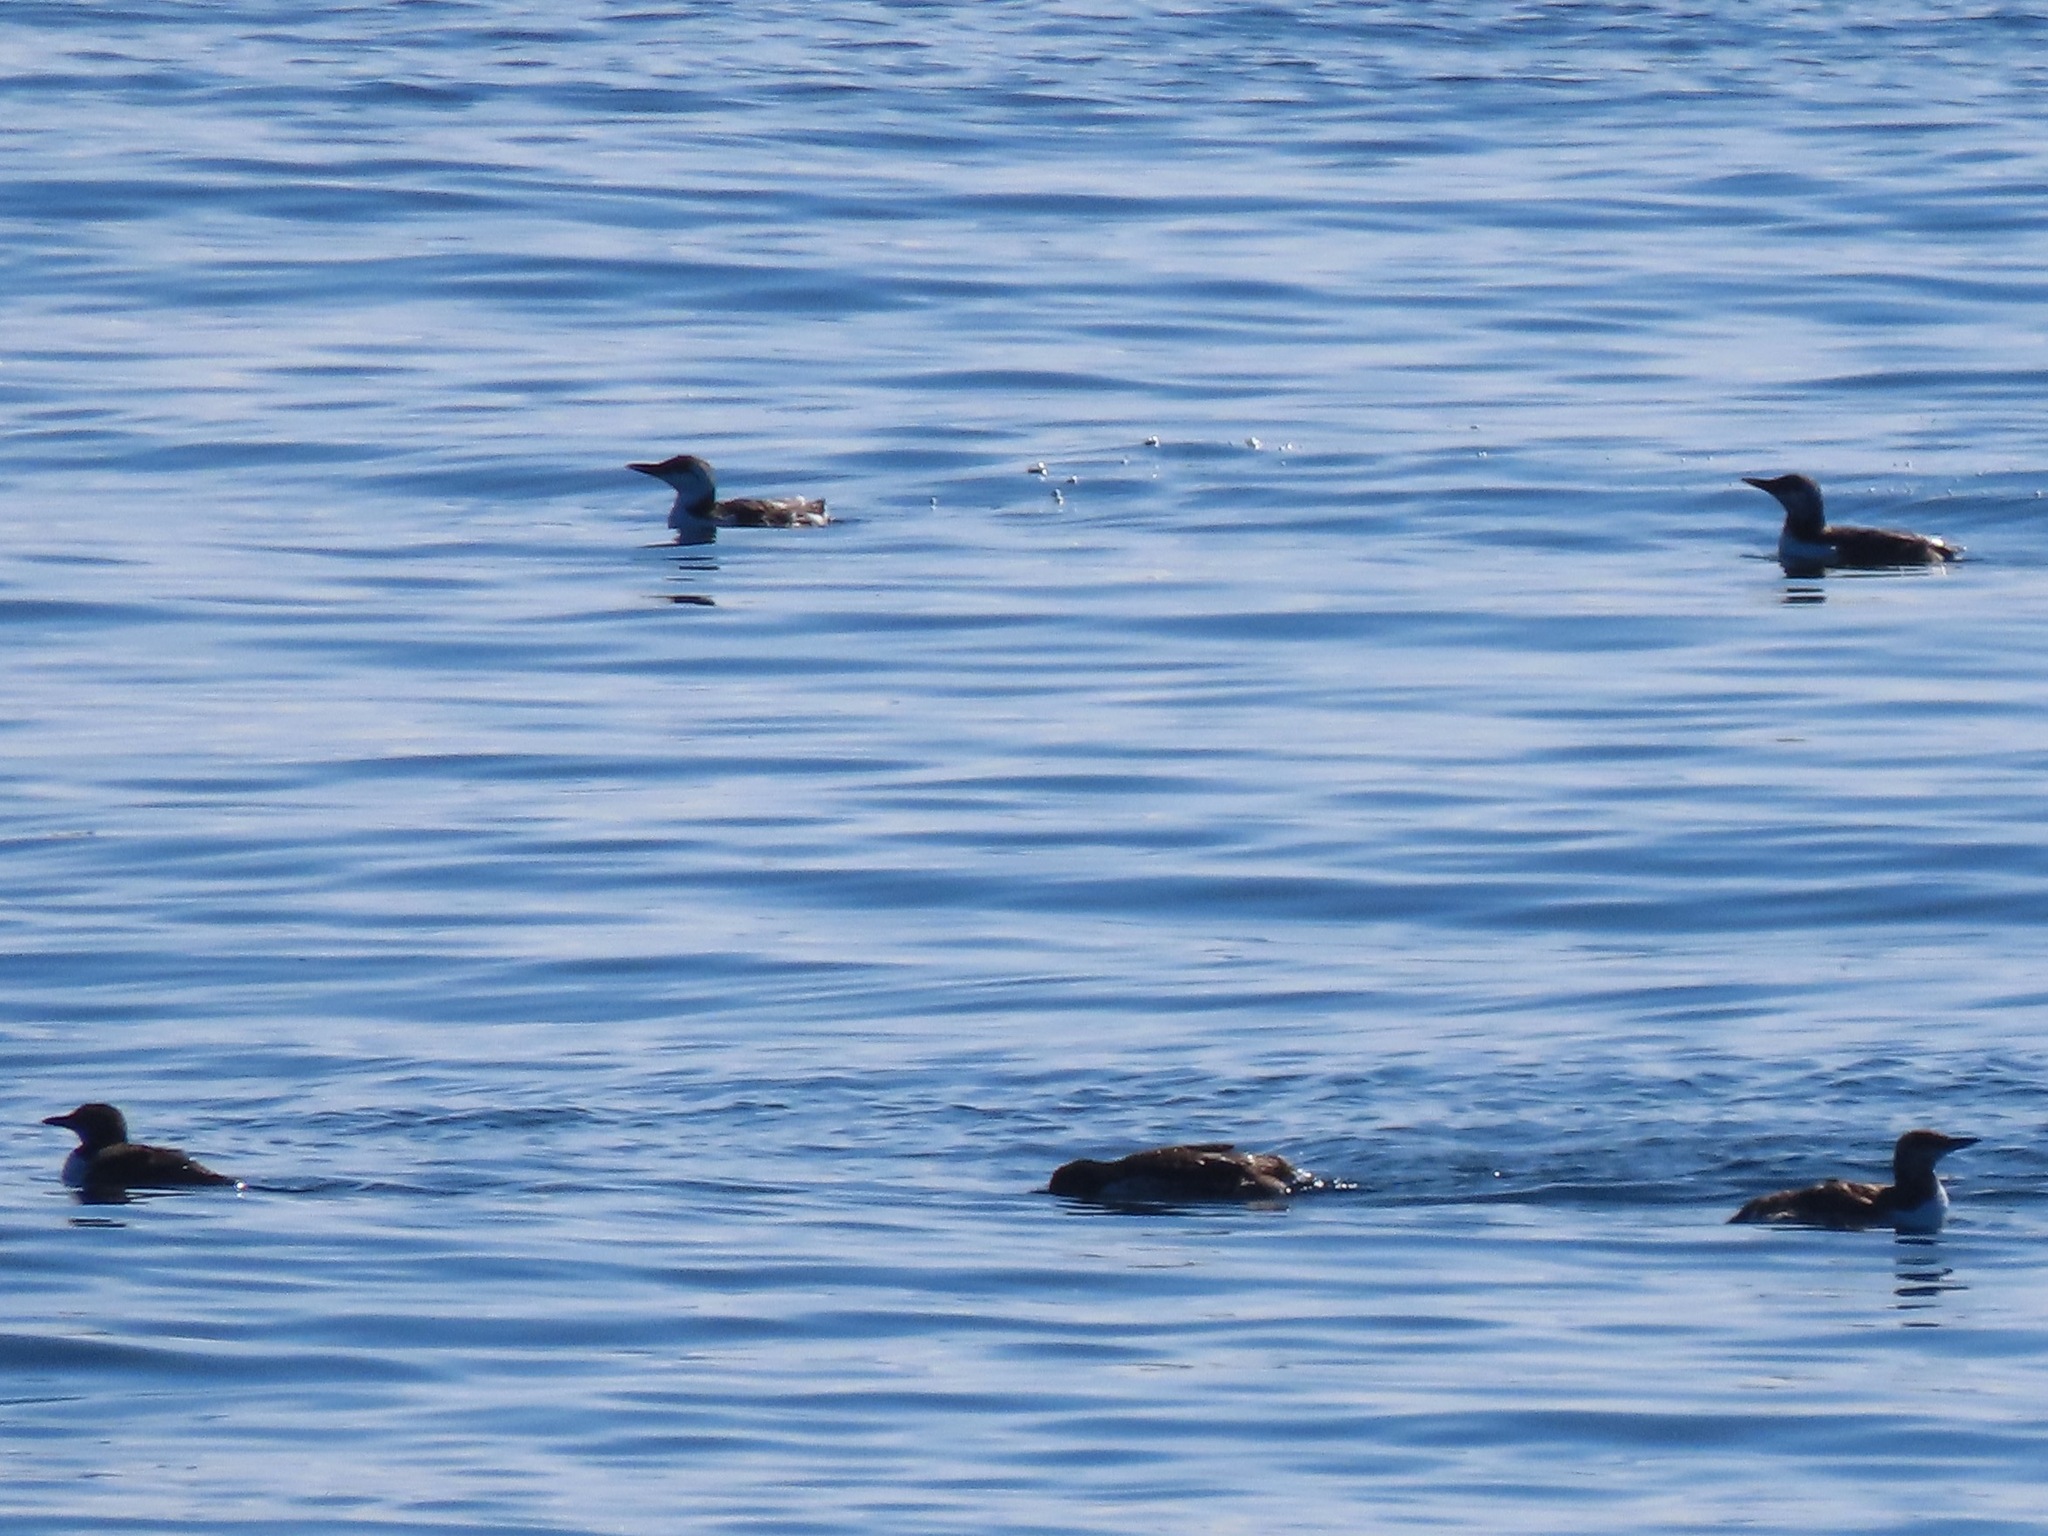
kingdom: Animalia
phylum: Chordata
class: Aves
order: Charadriiformes
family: Alcidae
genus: Uria
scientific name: Uria aalge
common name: Common murre
